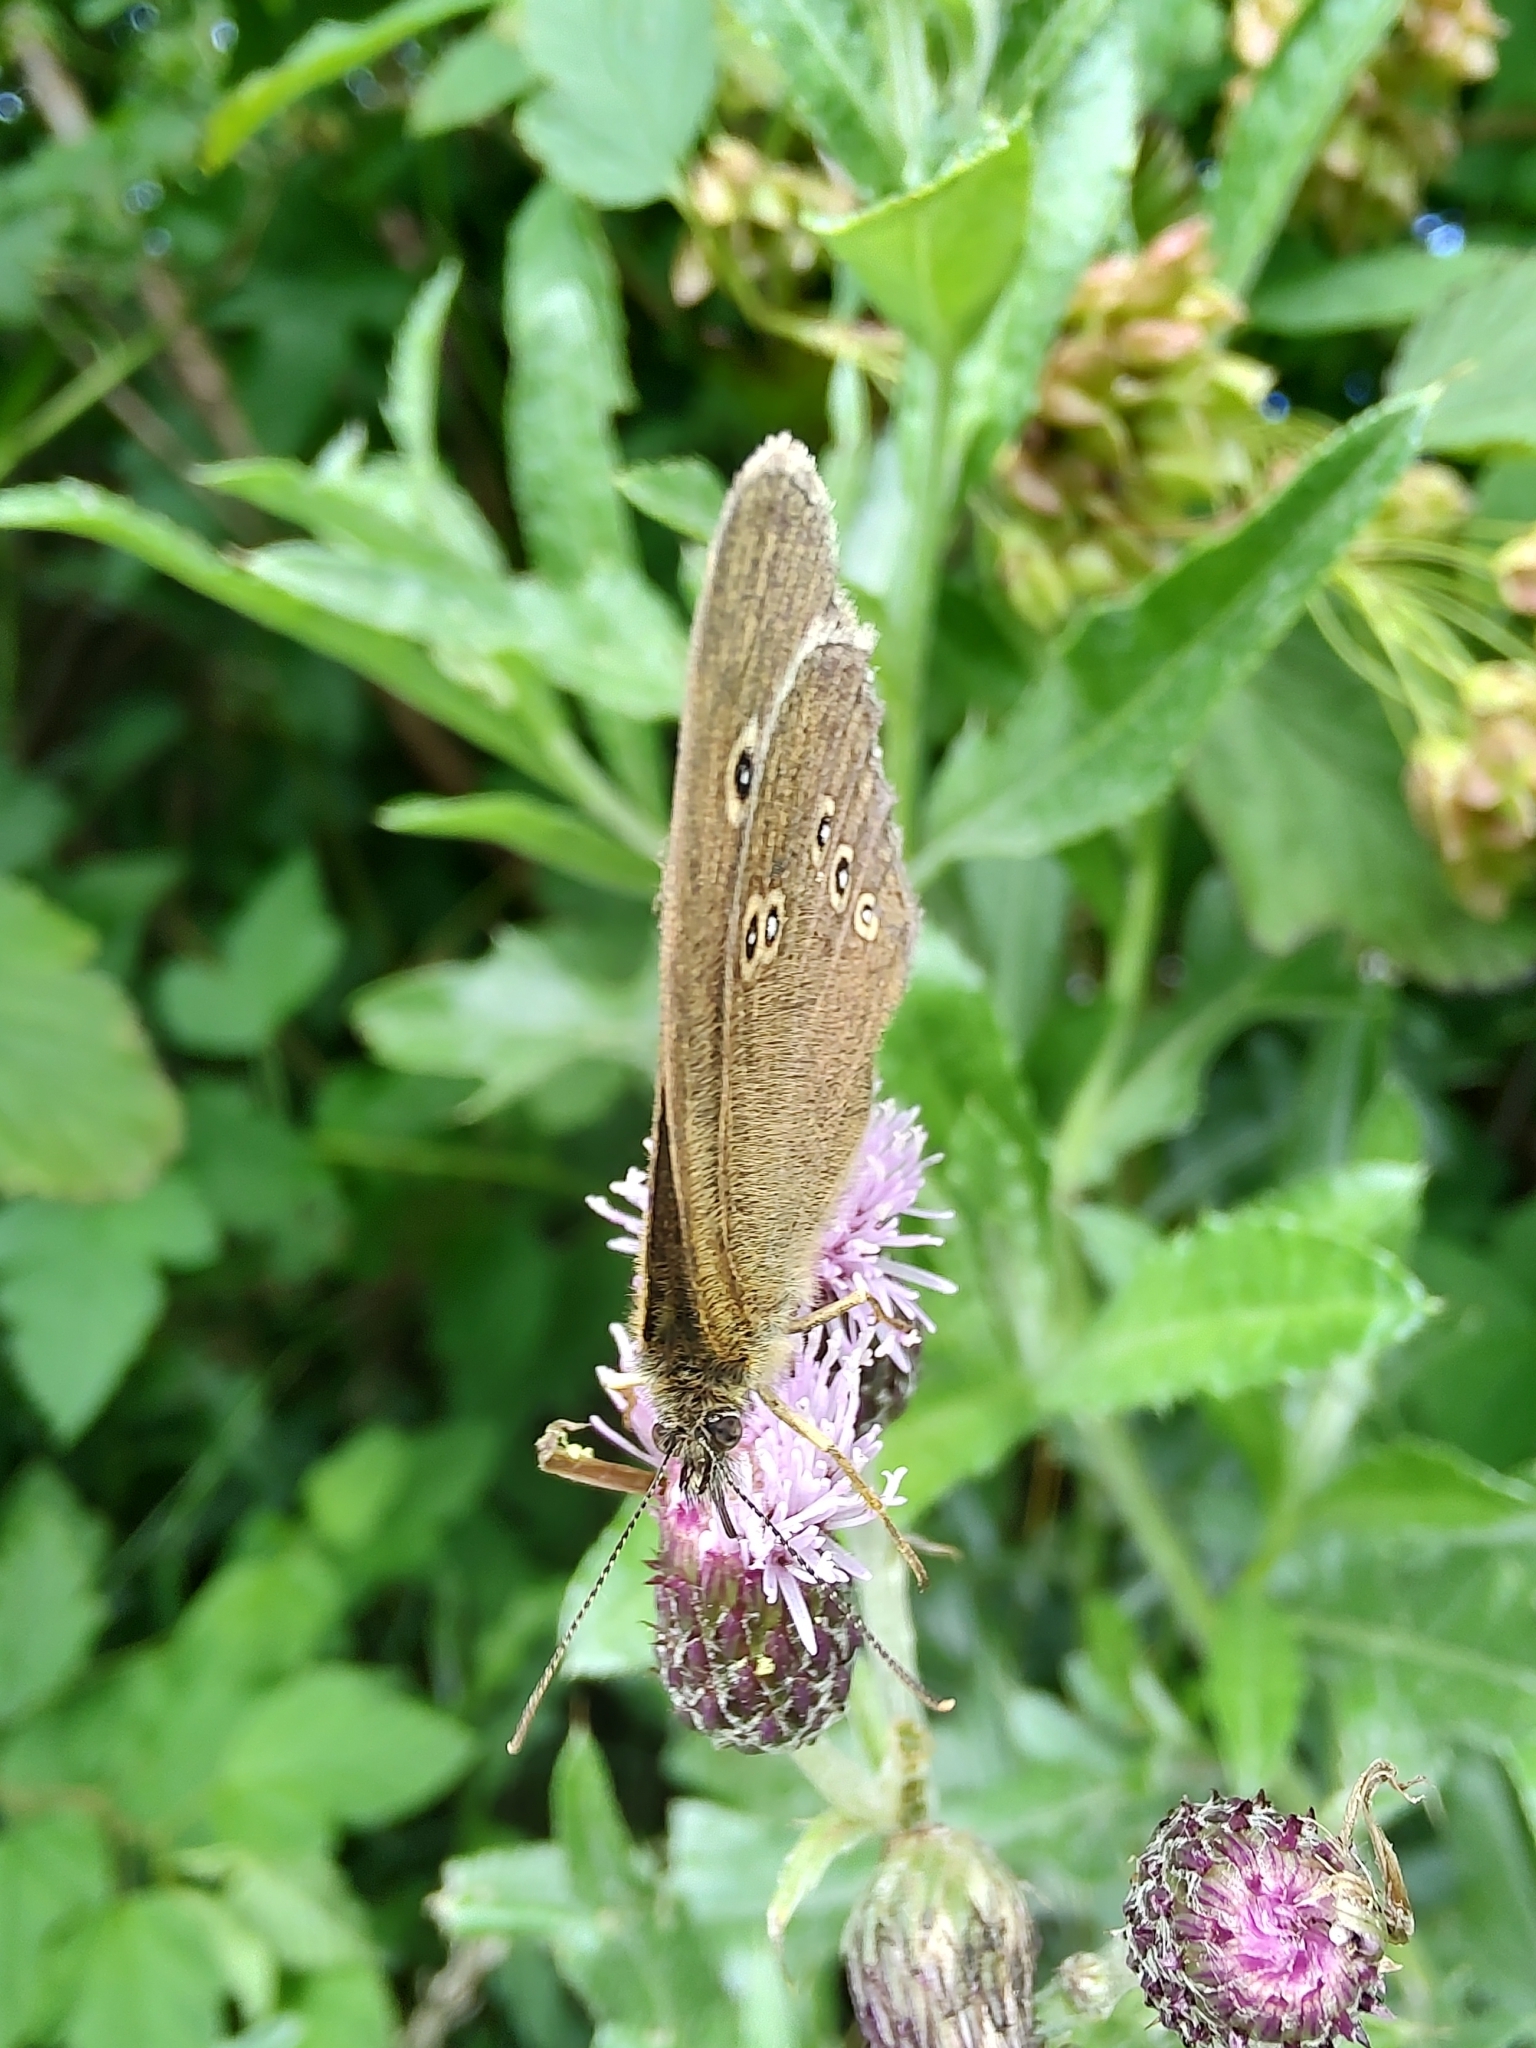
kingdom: Animalia
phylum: Arthropoda
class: Insecta
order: Lepidoptera
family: Nymphalidae
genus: Aphantopus
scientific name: Aphantopus hyperantus
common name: Ringlet
